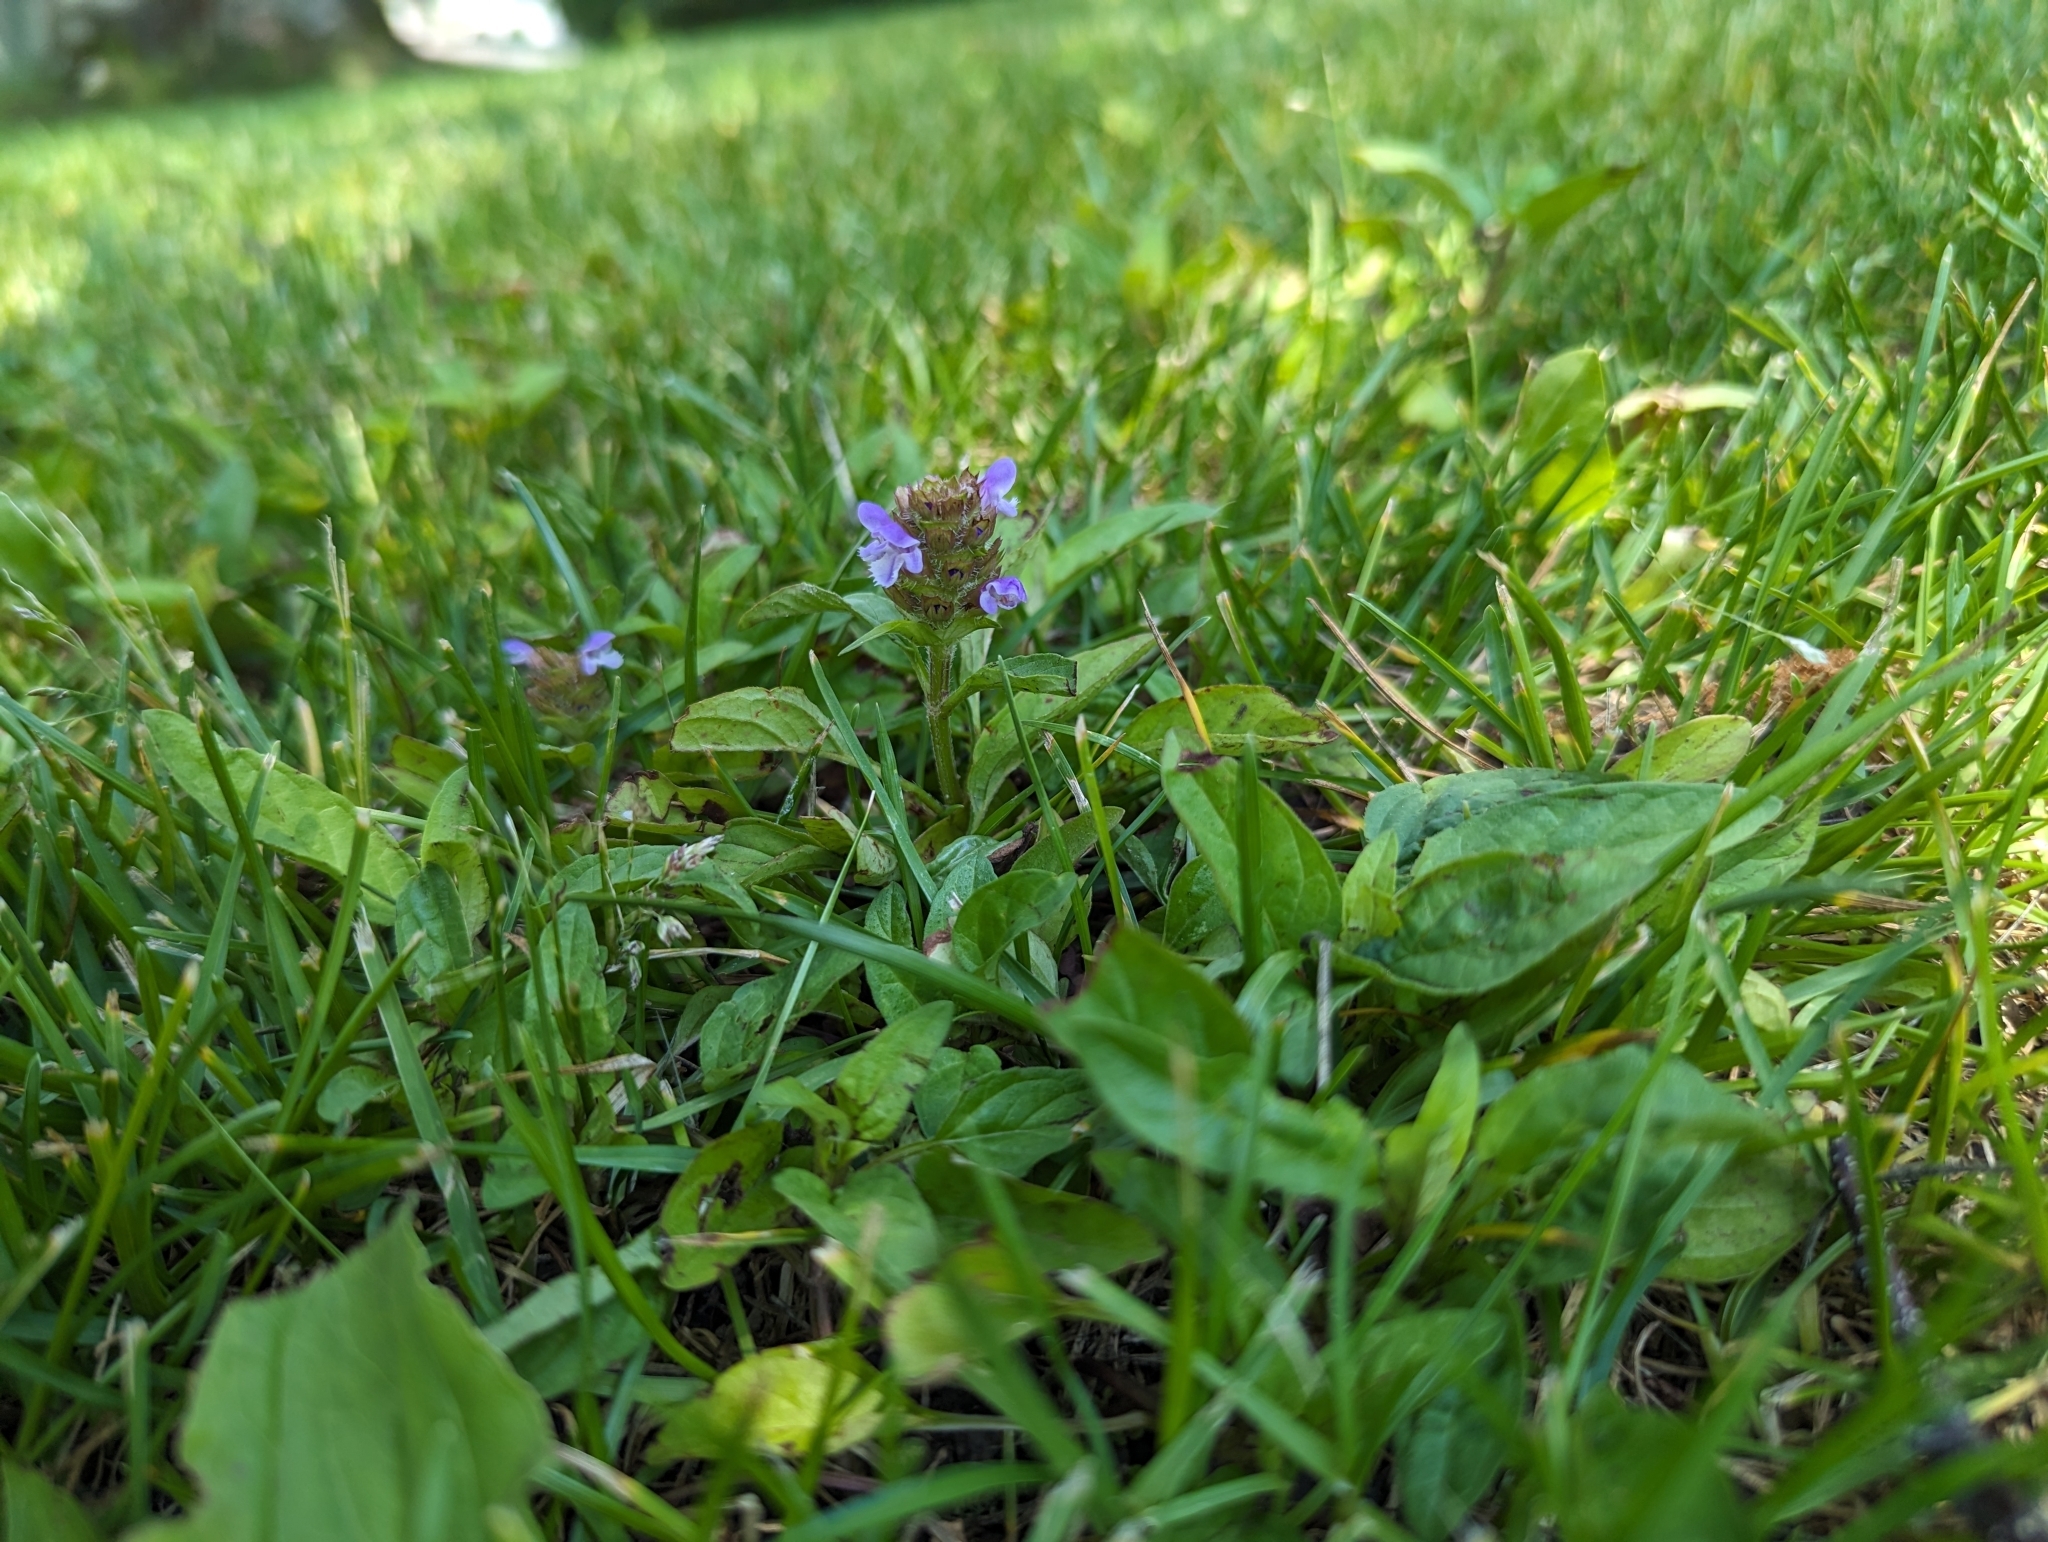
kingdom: Plantae
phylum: Tracheophyta
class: Magnoliopsida
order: Lamiales
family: Lamiaceae
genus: Prunella
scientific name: Prunella vulgaris
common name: Heal-all
